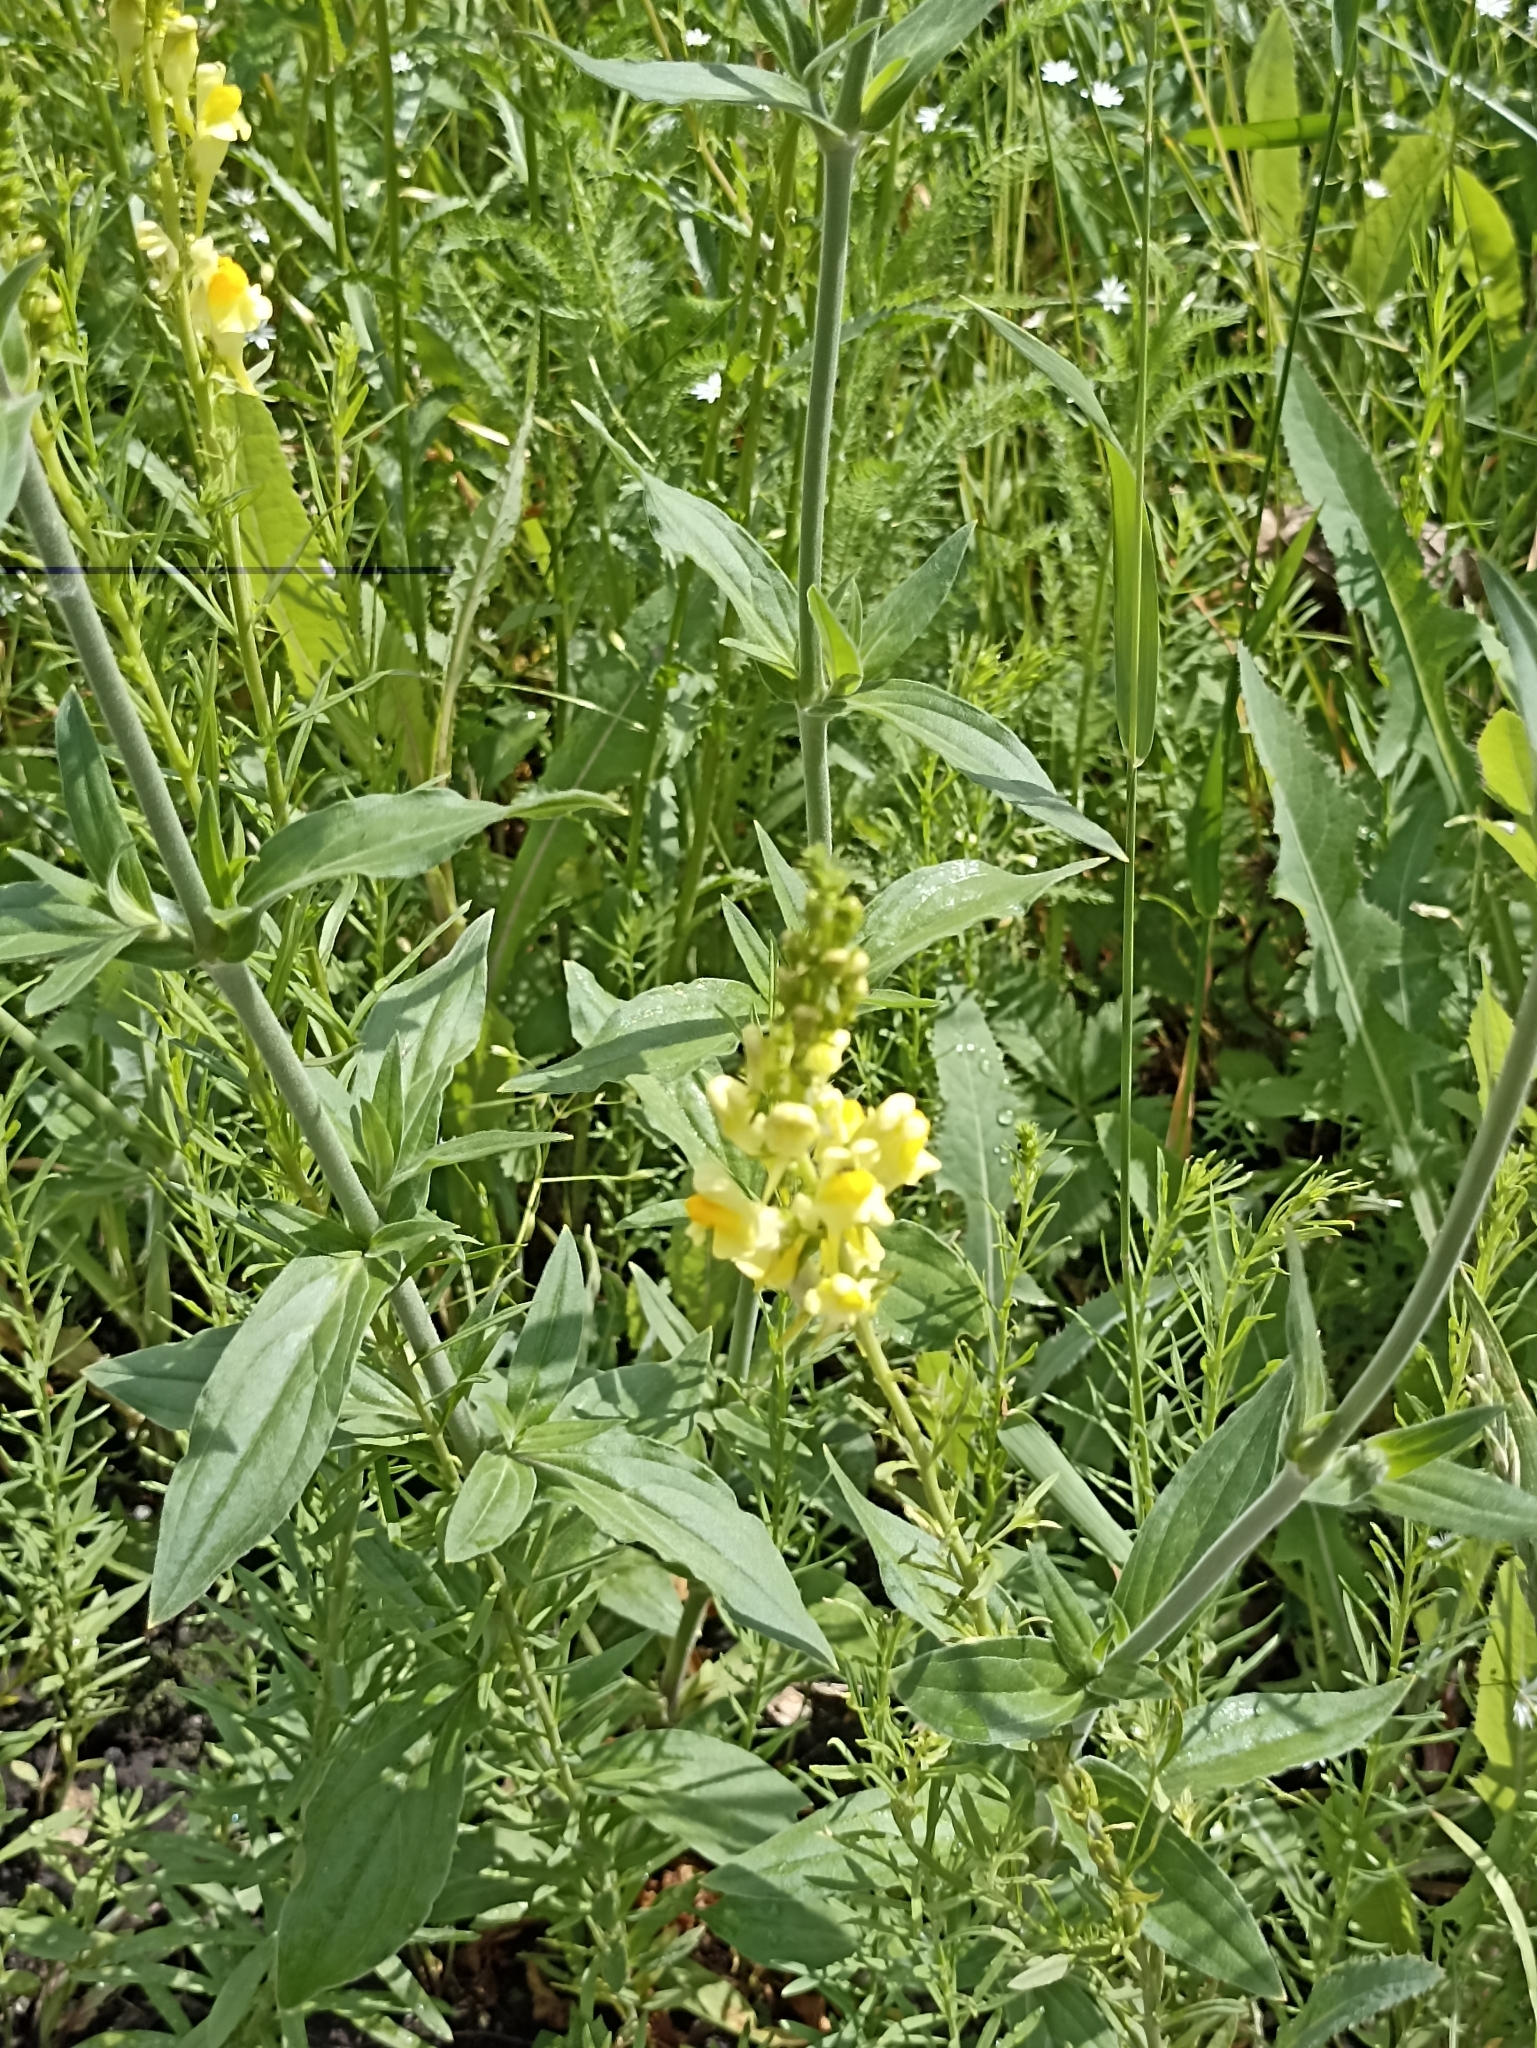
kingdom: Plantae
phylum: Tracheophyta
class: Magnoliopsida
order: Lamiales
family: Plantaginaceae
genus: Linaria
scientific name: Linaria vulgaris
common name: Butter and eggs
